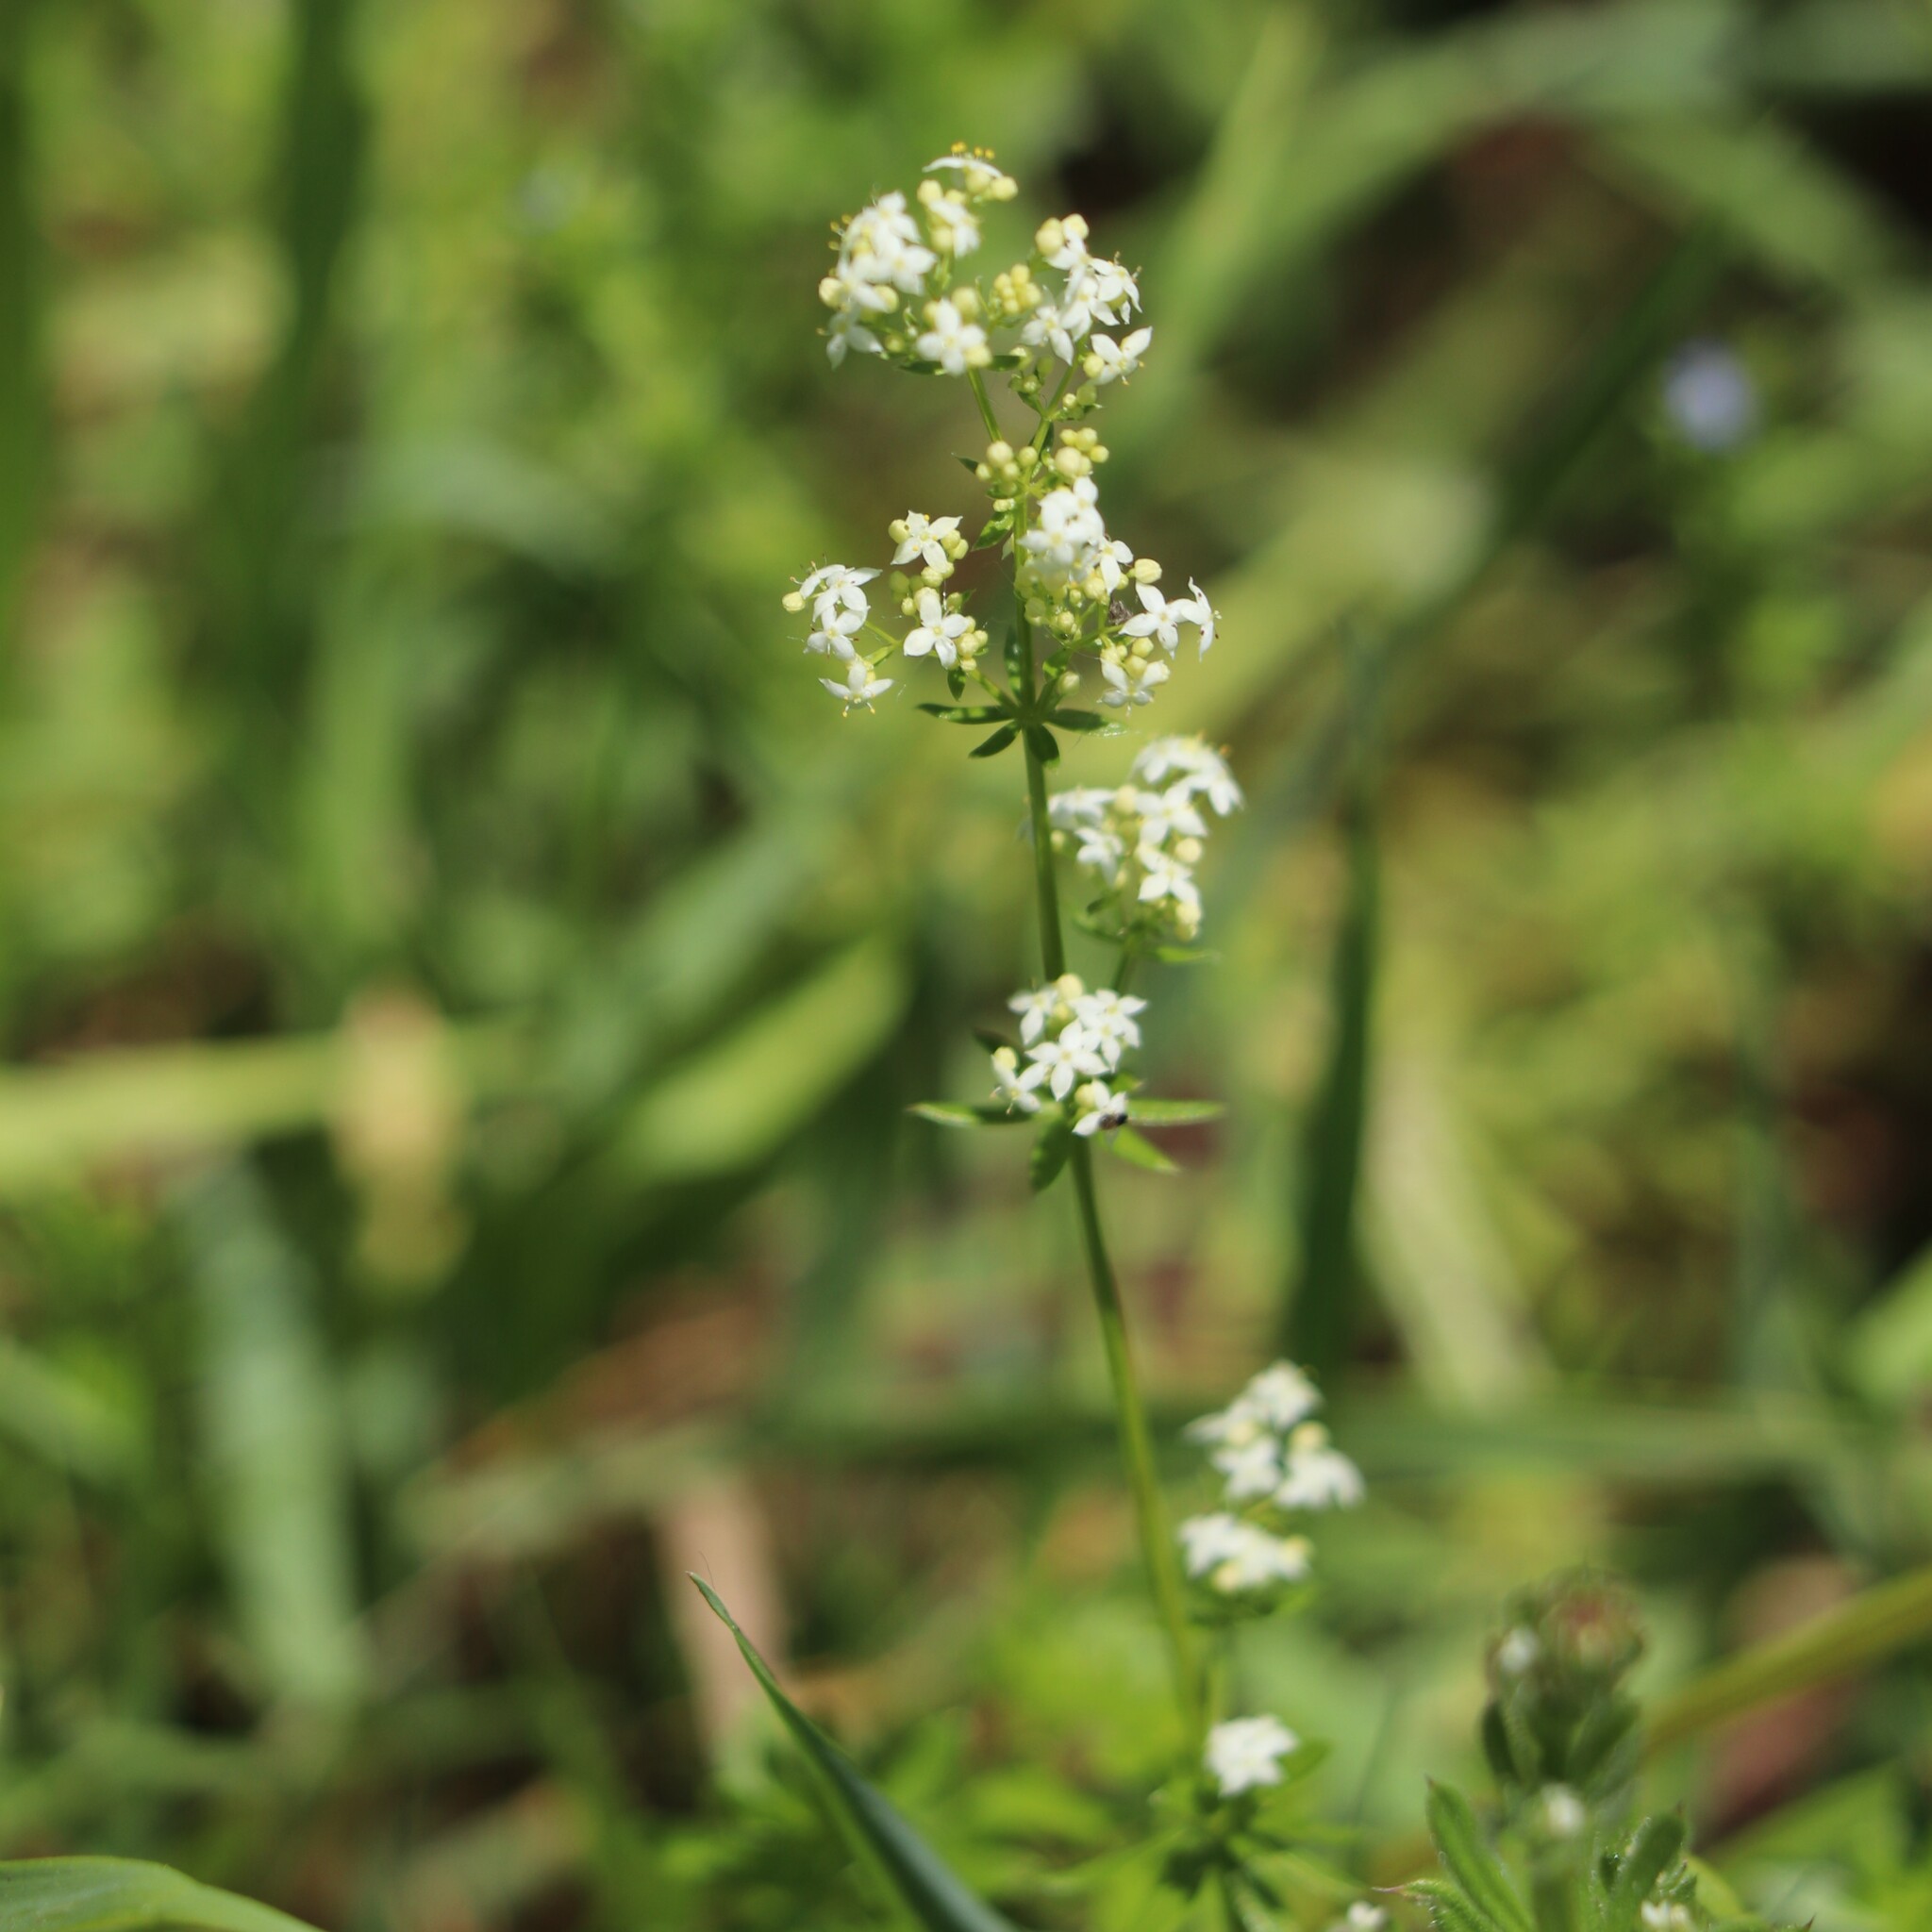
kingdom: Plantae
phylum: Tracheophyta
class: Magnoliopsida
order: Gentianales
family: Rubiaceae
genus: Galium
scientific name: Galium mollugo
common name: Hedge bedstraw
